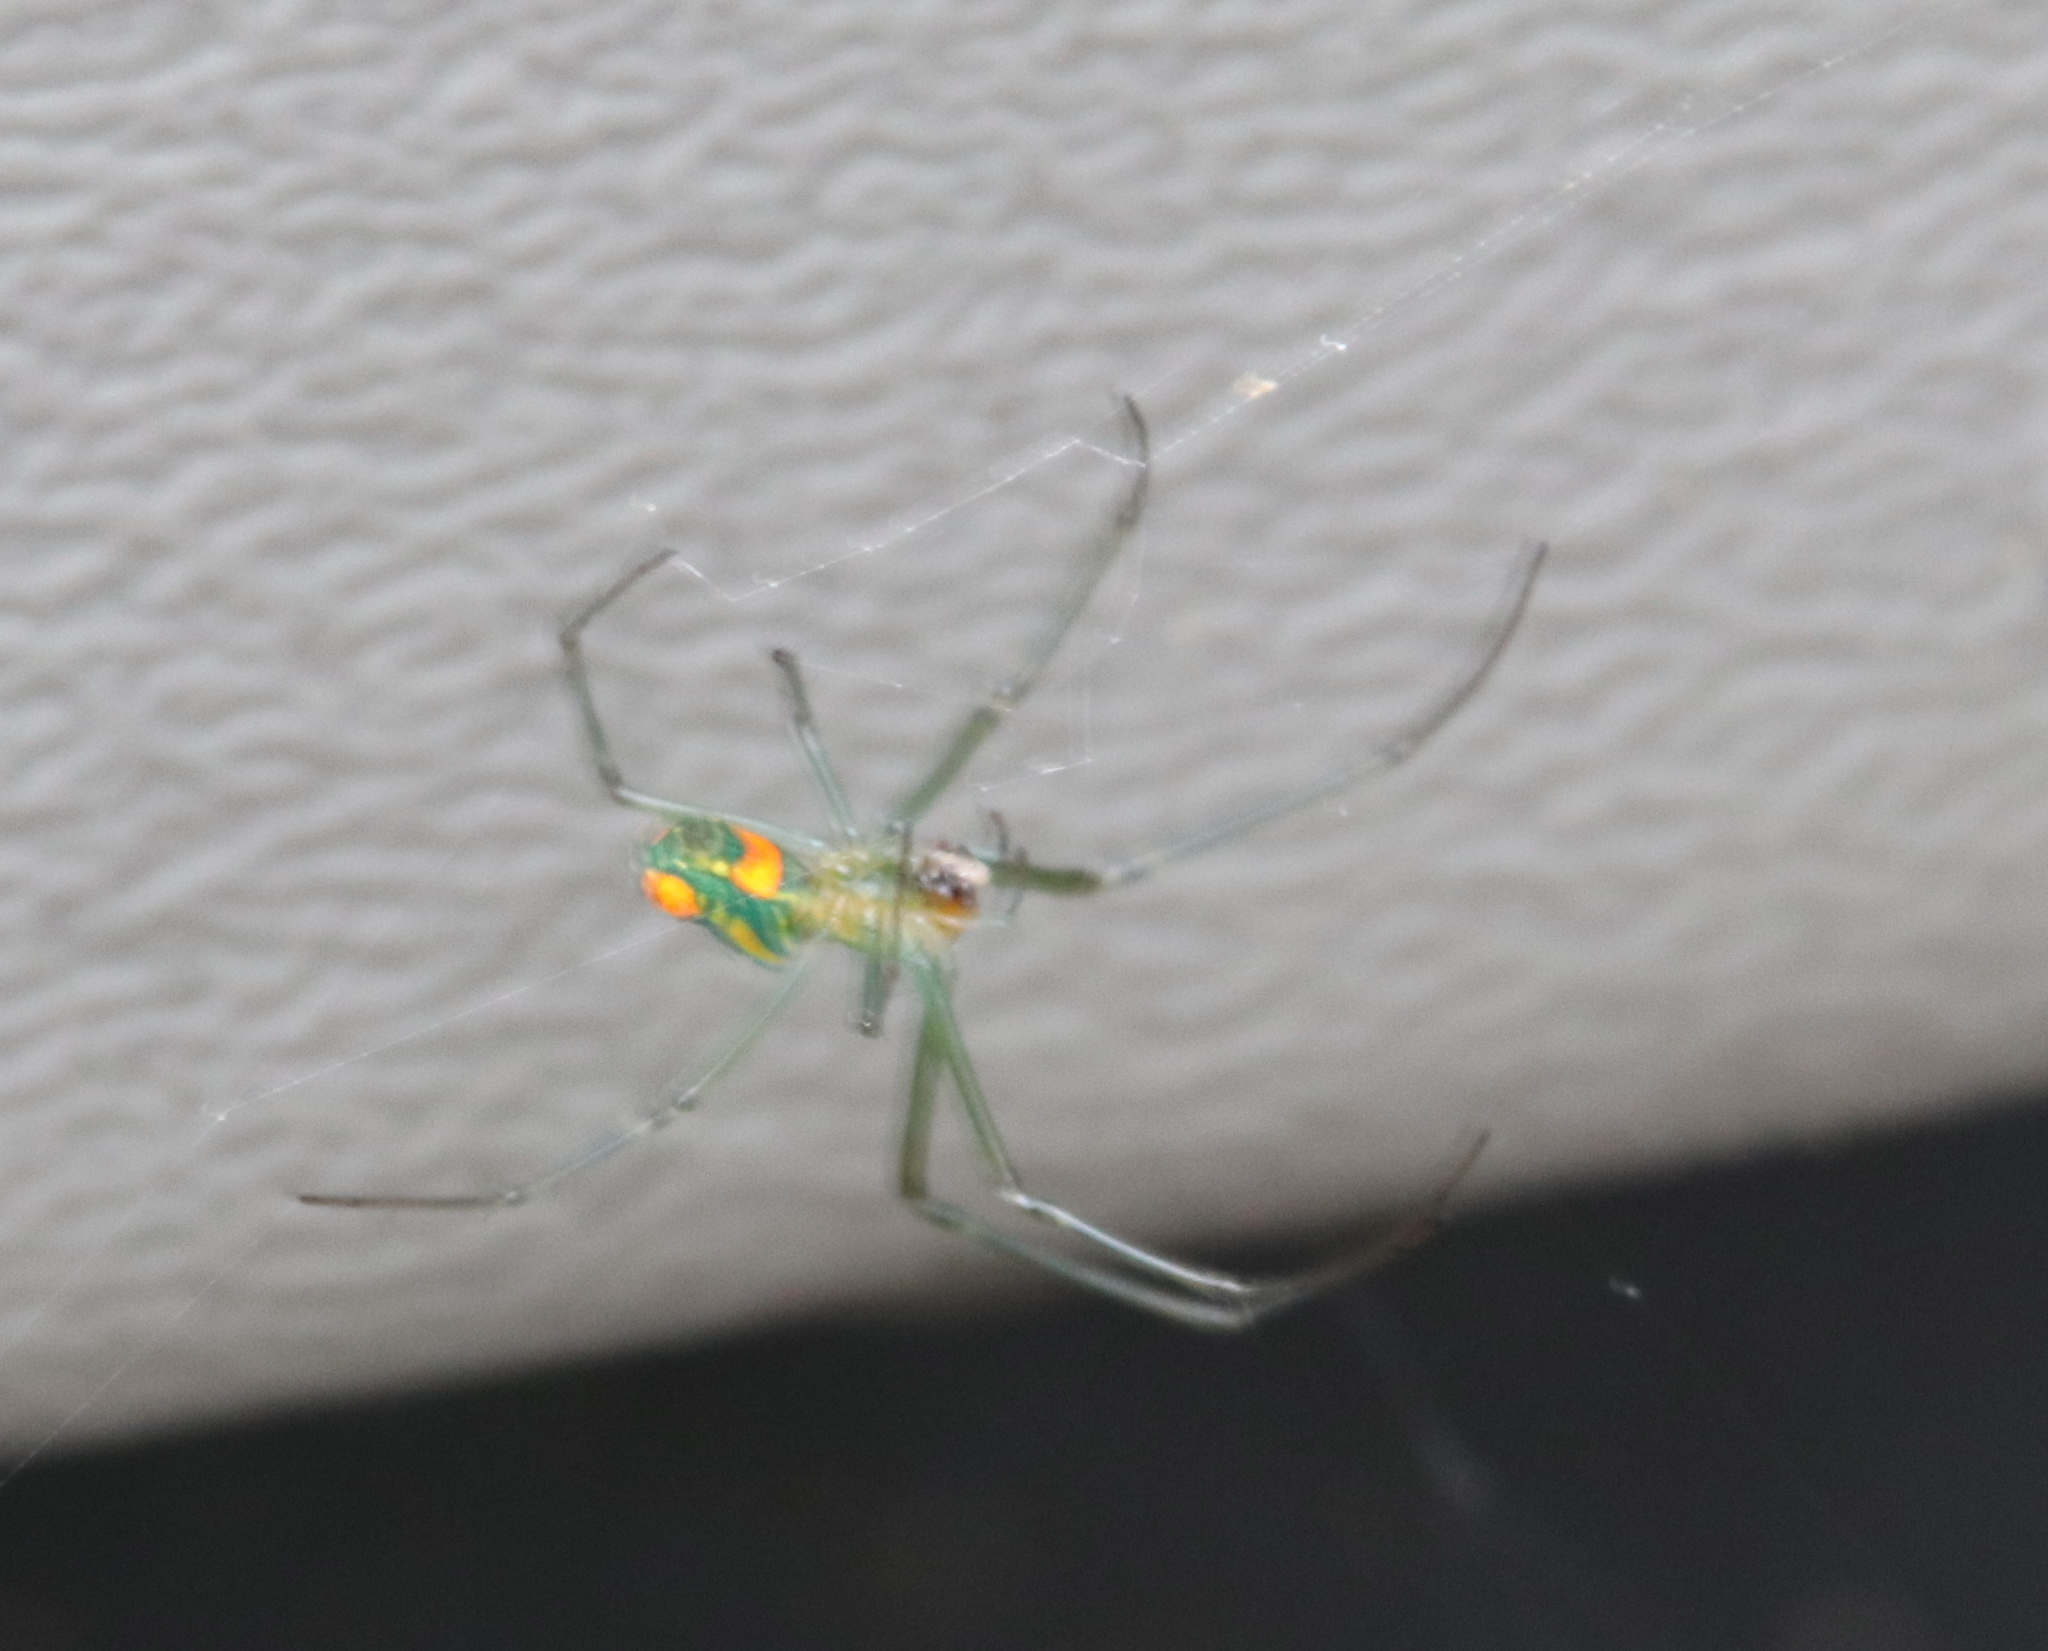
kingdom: Animalia
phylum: Arthropoda
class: Arachnida
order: Araneae
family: Tetragnathidae
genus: Leucauge
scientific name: Leucauge argyrobapta
